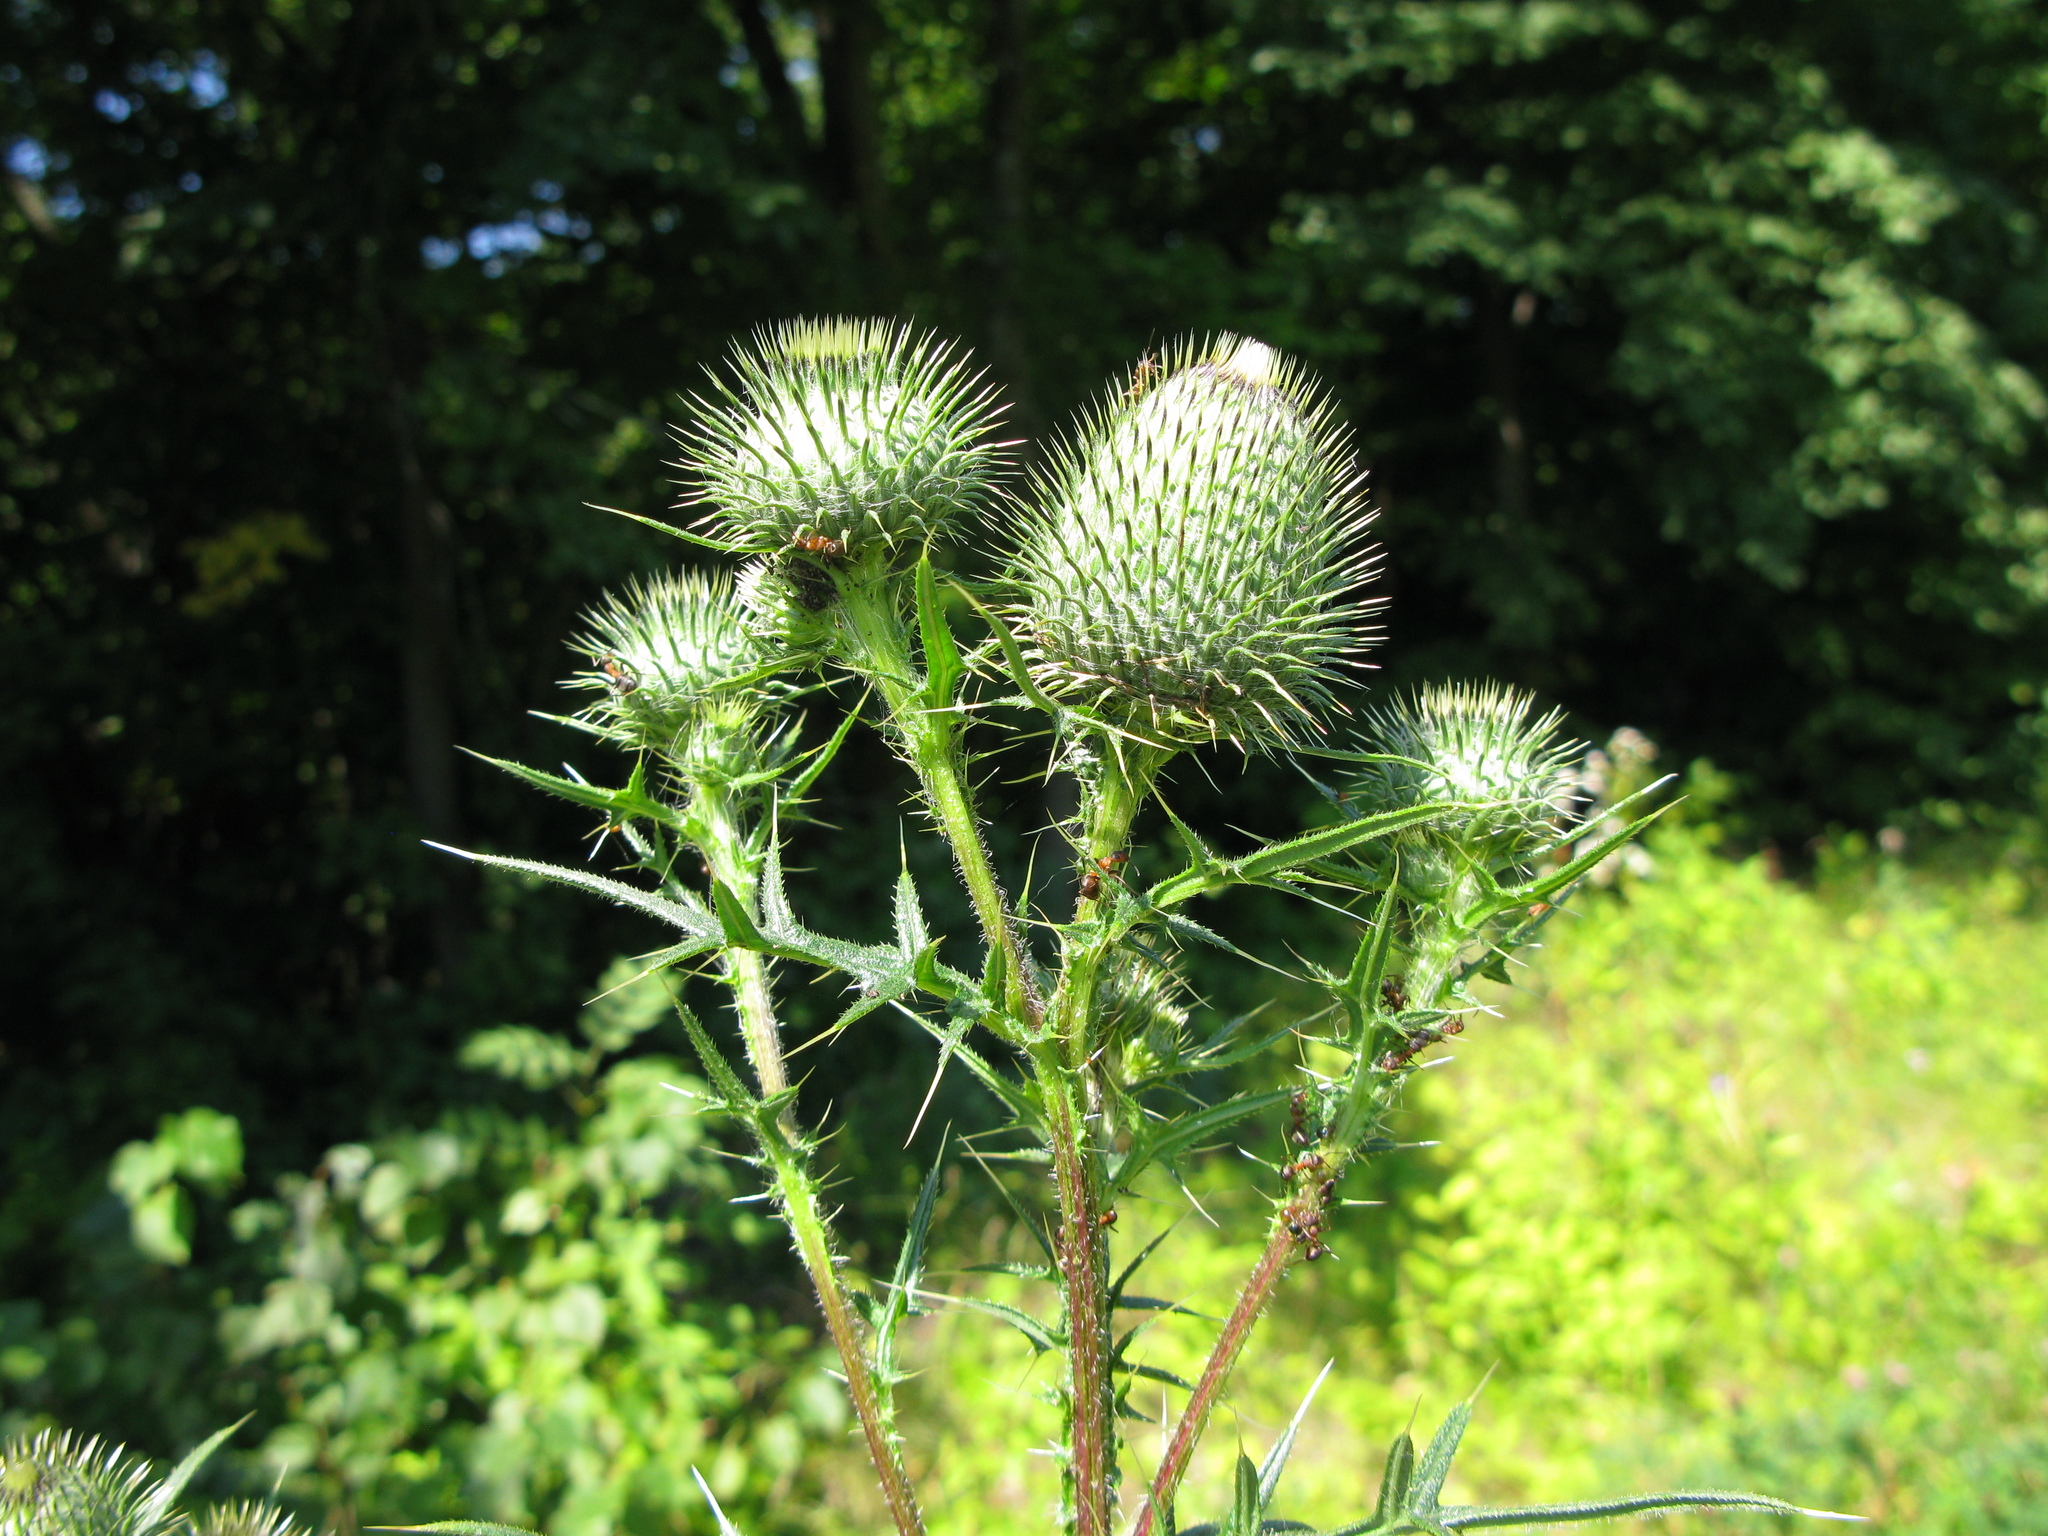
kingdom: Plantae
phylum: Tracheophyta
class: Magnoliopsida
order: Asterales
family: Asteraceae
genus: Cirsium
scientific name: Cirsium vulgare
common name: Bull thistle
